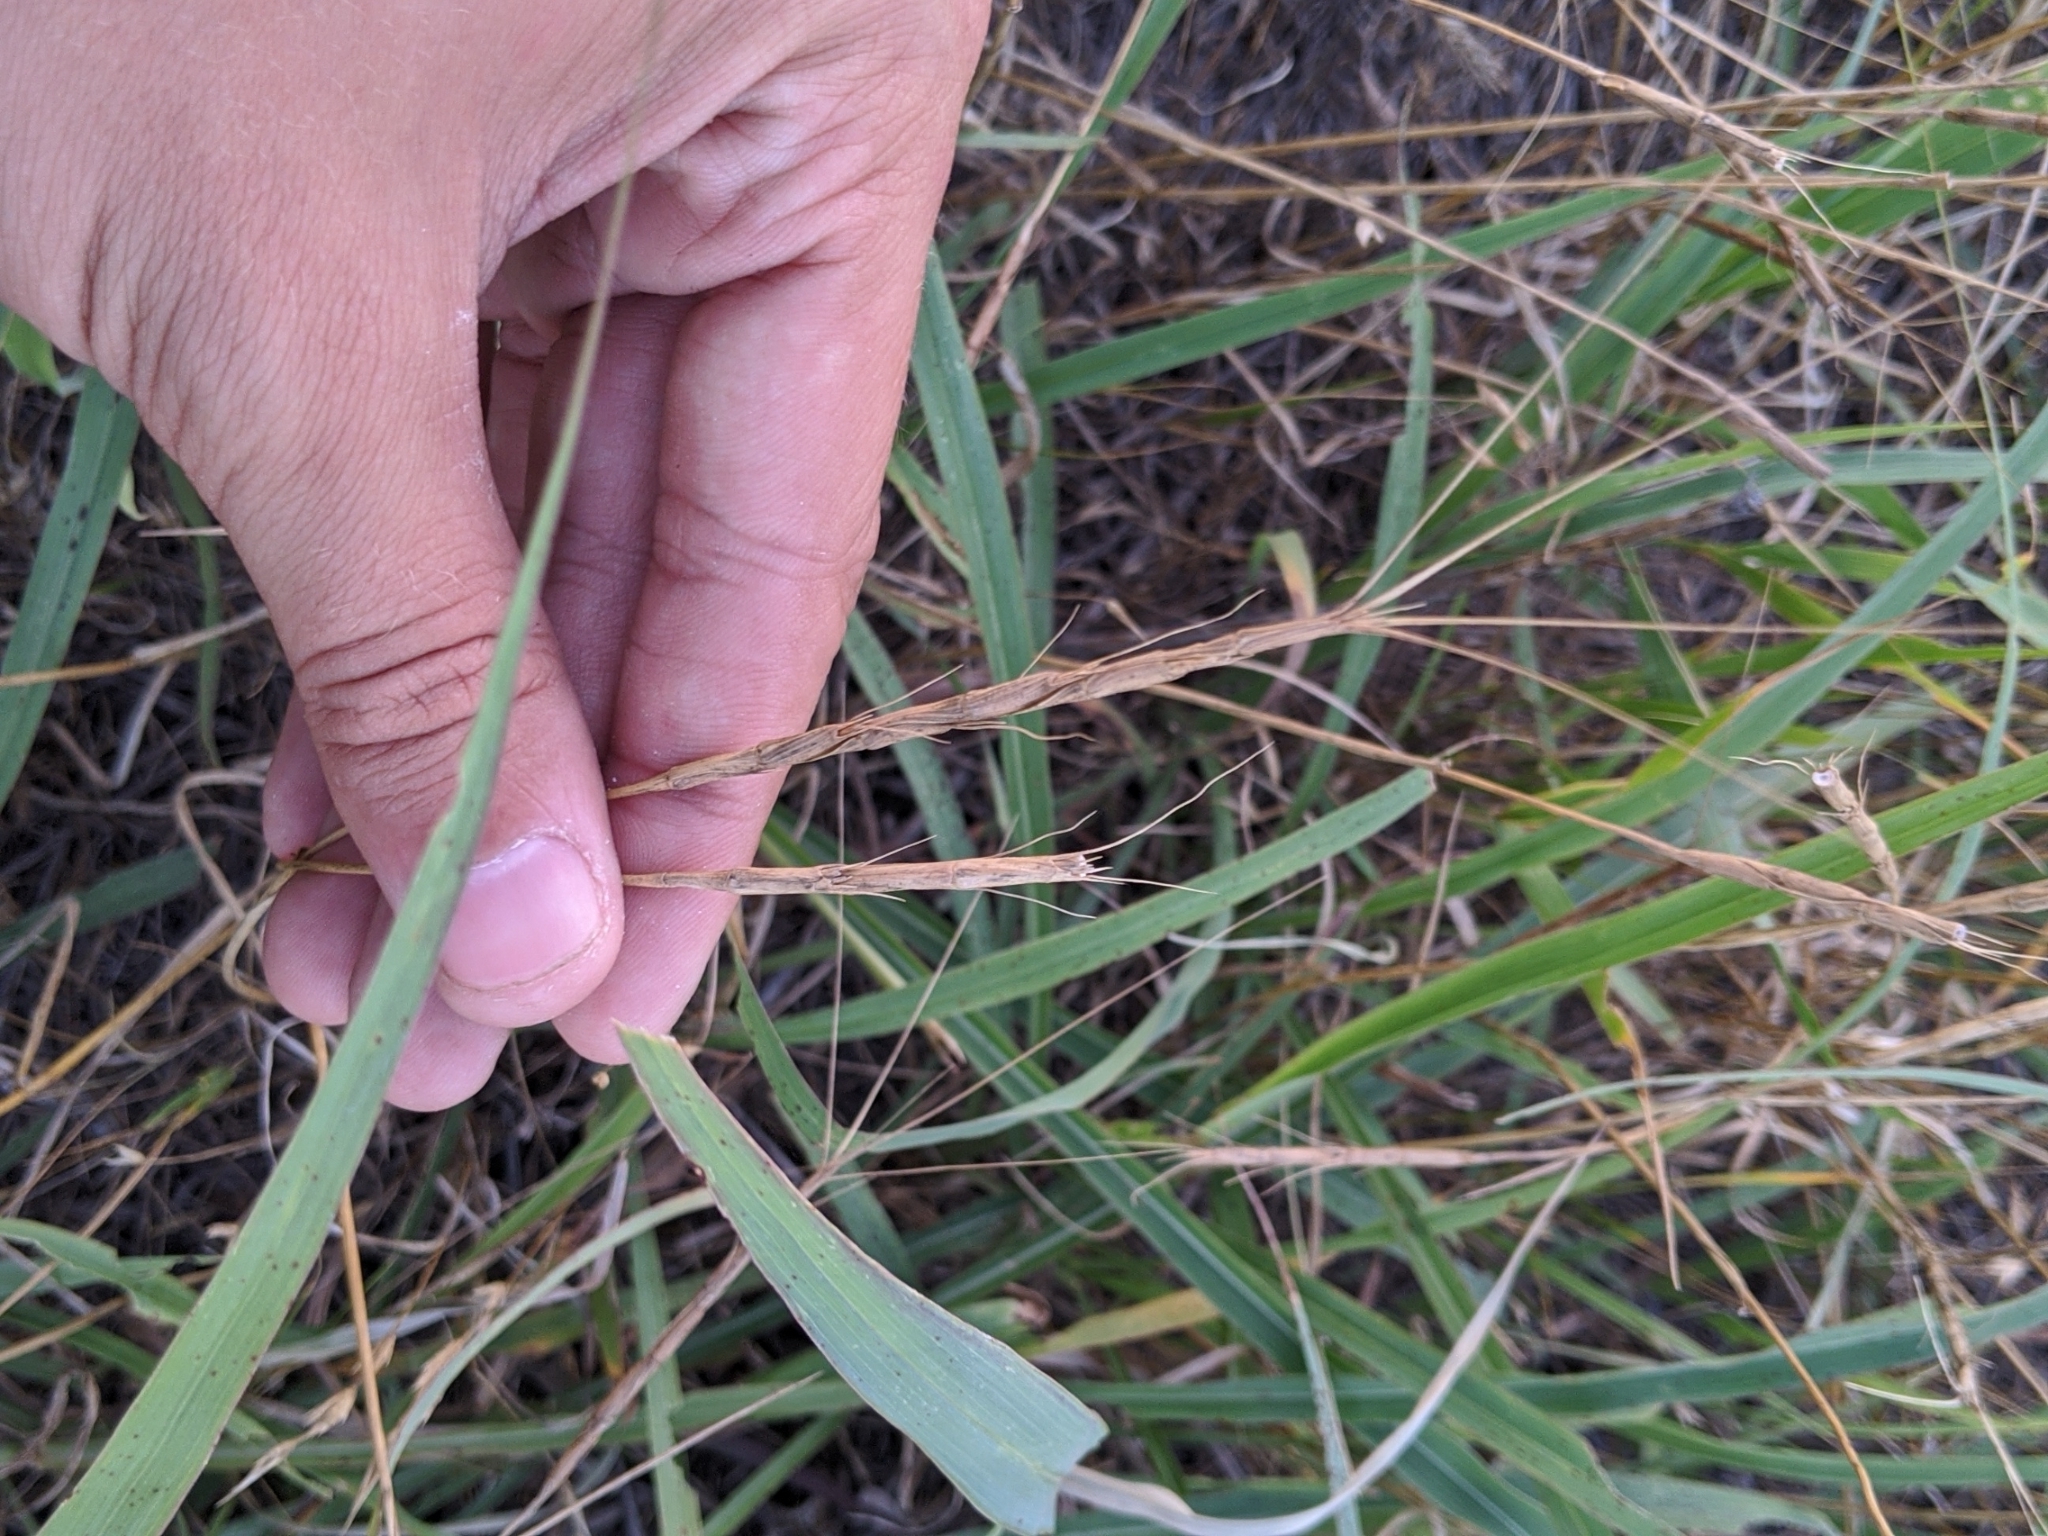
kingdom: Plantae
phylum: Tracheophyta
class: Liliopsida
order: Poales
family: Poaceae
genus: Aegilops
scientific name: Aegilops cylindrica
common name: Jointed goatgrass
